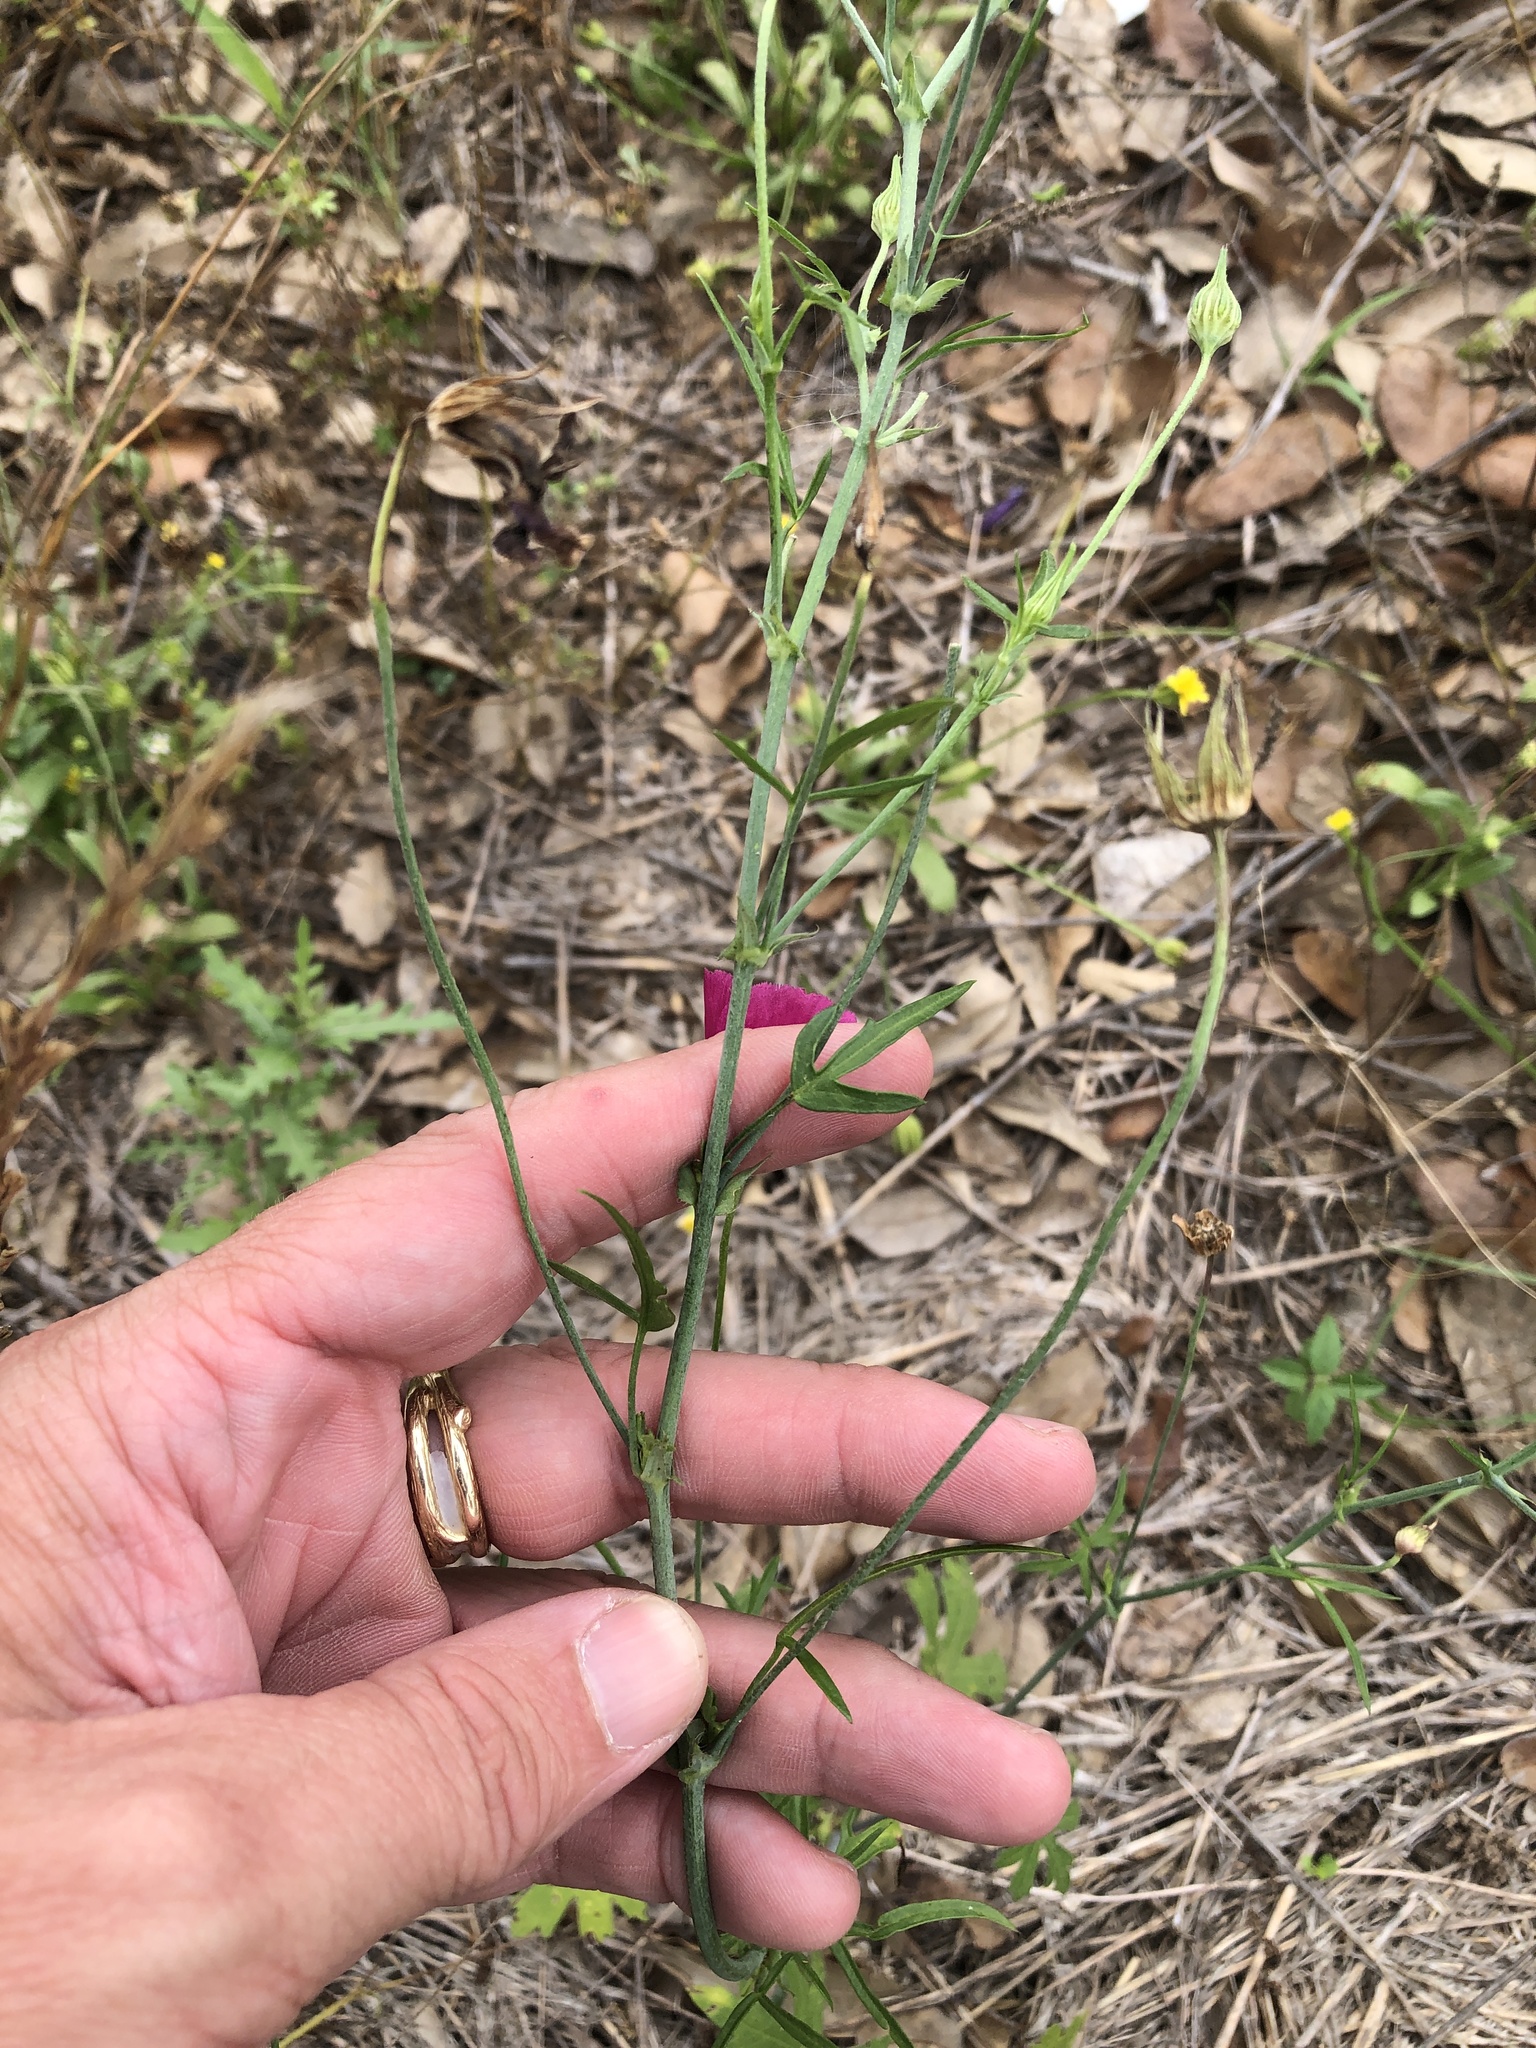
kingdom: Plantae
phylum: Tracheophyta
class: Magnoliopsida
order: Malvales
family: Malvaceae
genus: Callirhoe
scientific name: Callirhoe leiocarpa
